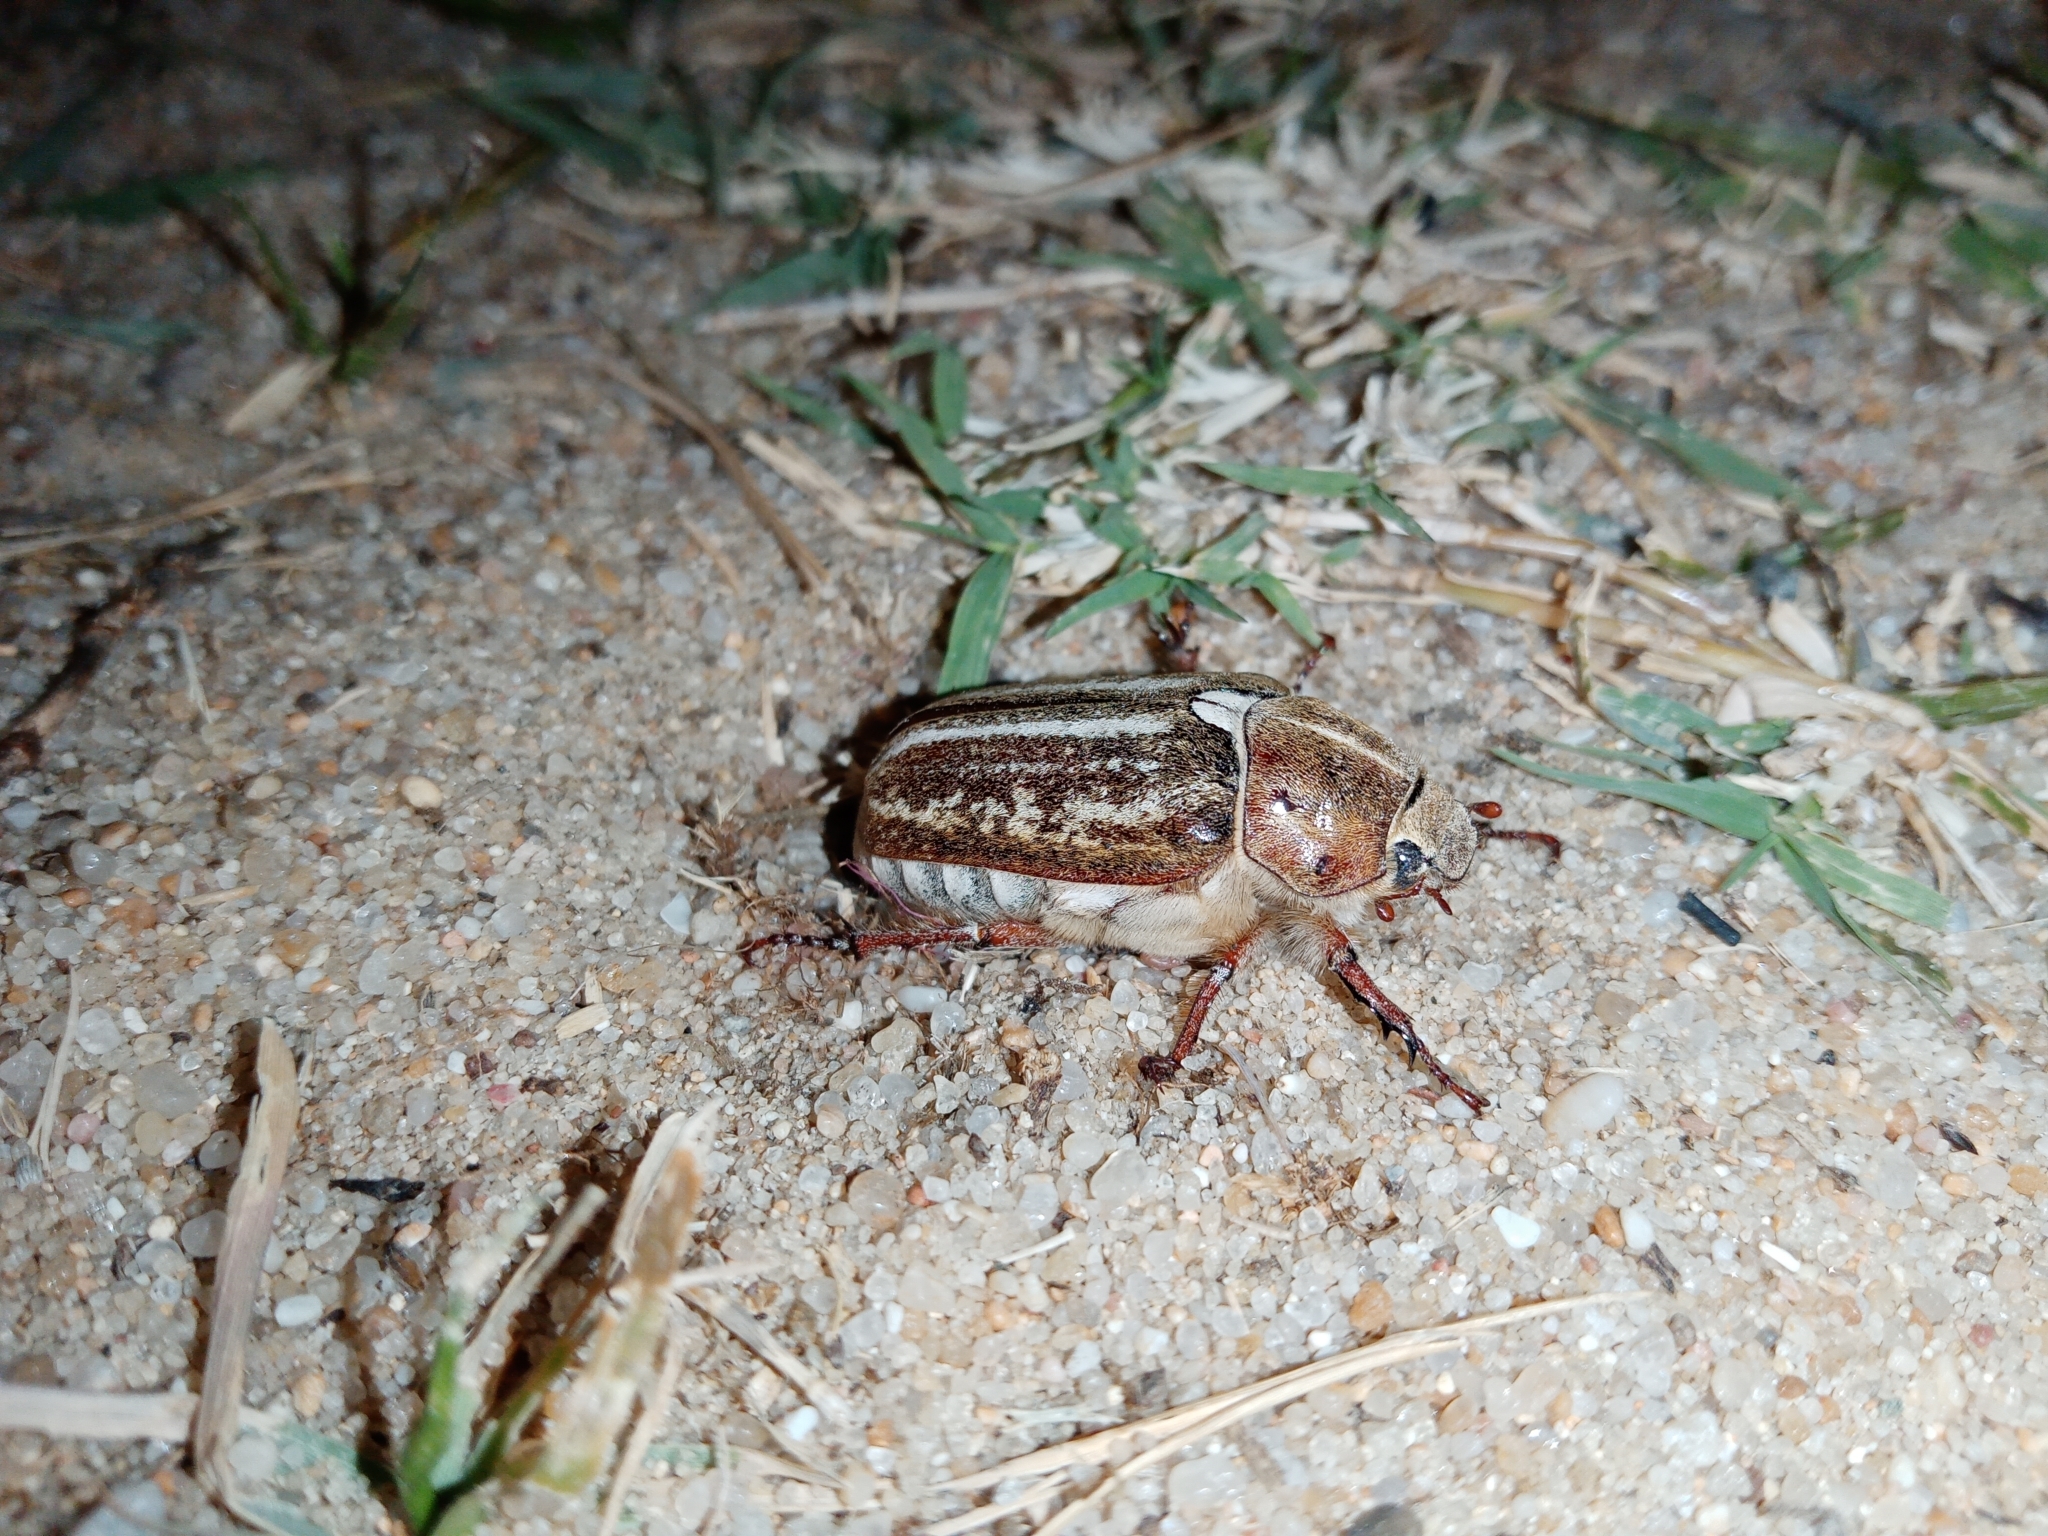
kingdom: Animalia
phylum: Arthropoda
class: Insecta
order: Coleoptera
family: Scarabaeidae
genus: Anoxia
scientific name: Anoxia australis
